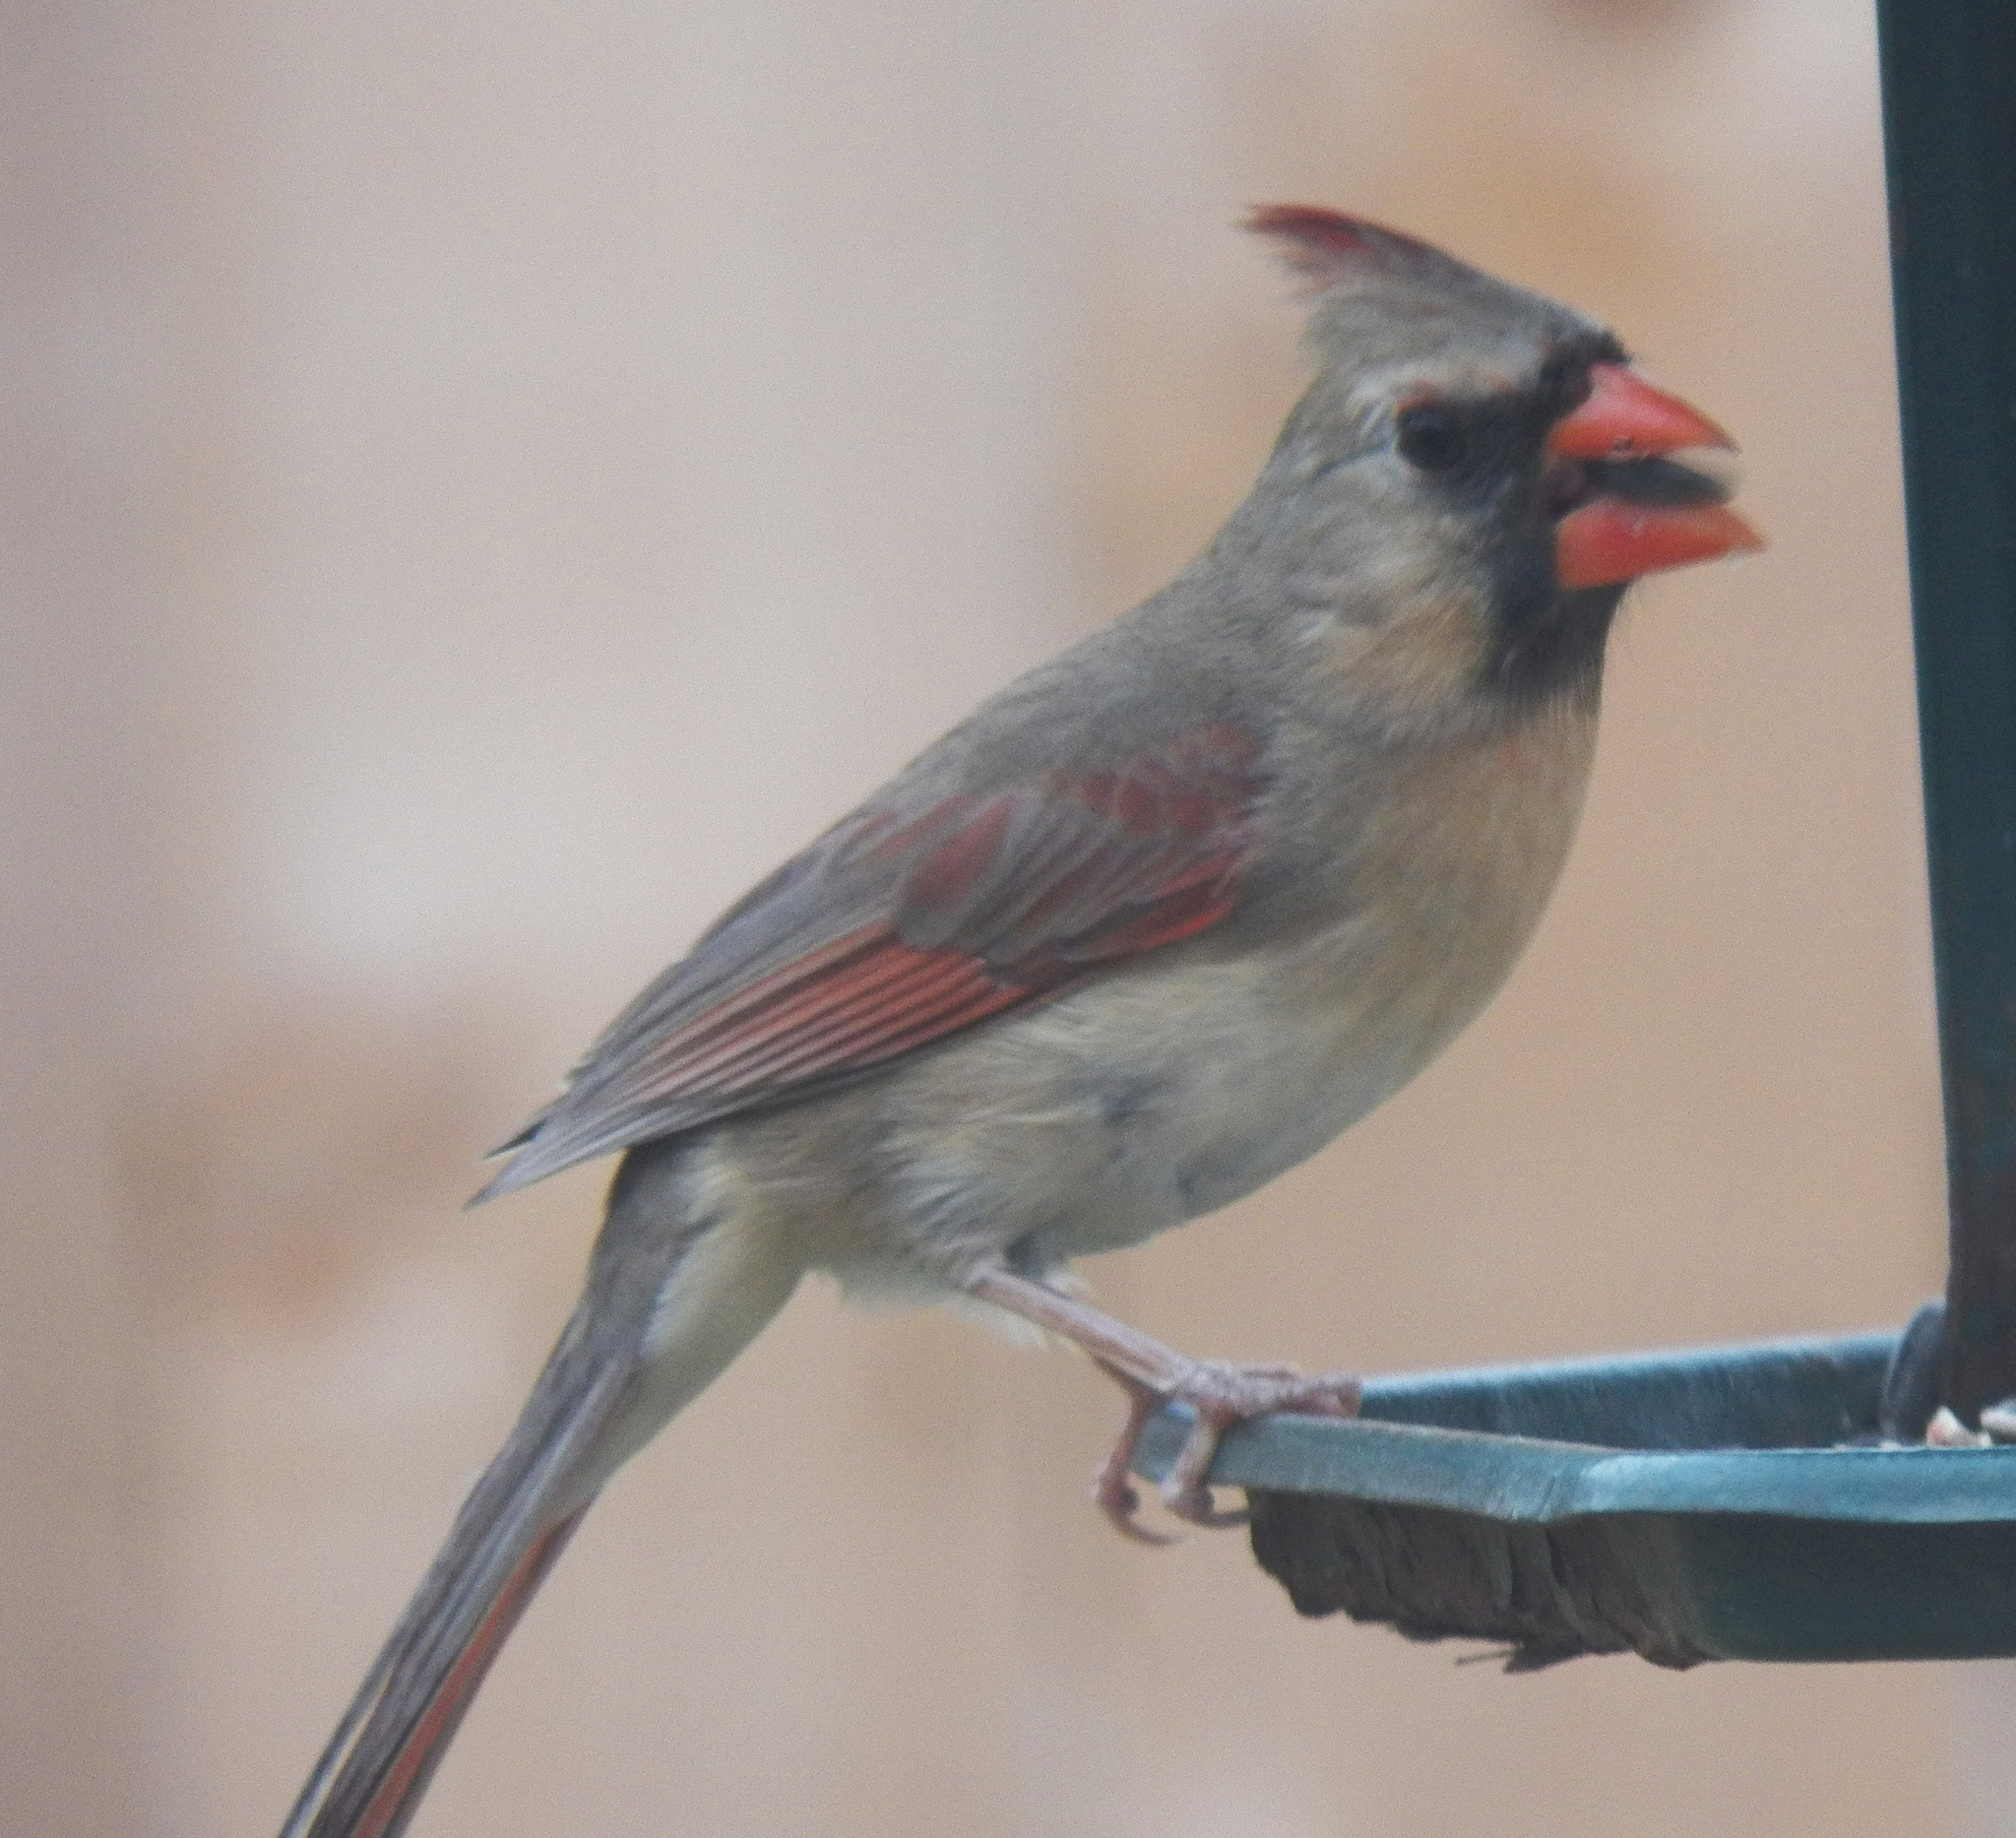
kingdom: Animalia
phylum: Chordata
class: Aves
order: Passeriformes
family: Cardinalidae
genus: Cardinalis
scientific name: Cardinalis cardinalis
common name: Northern cardinal
